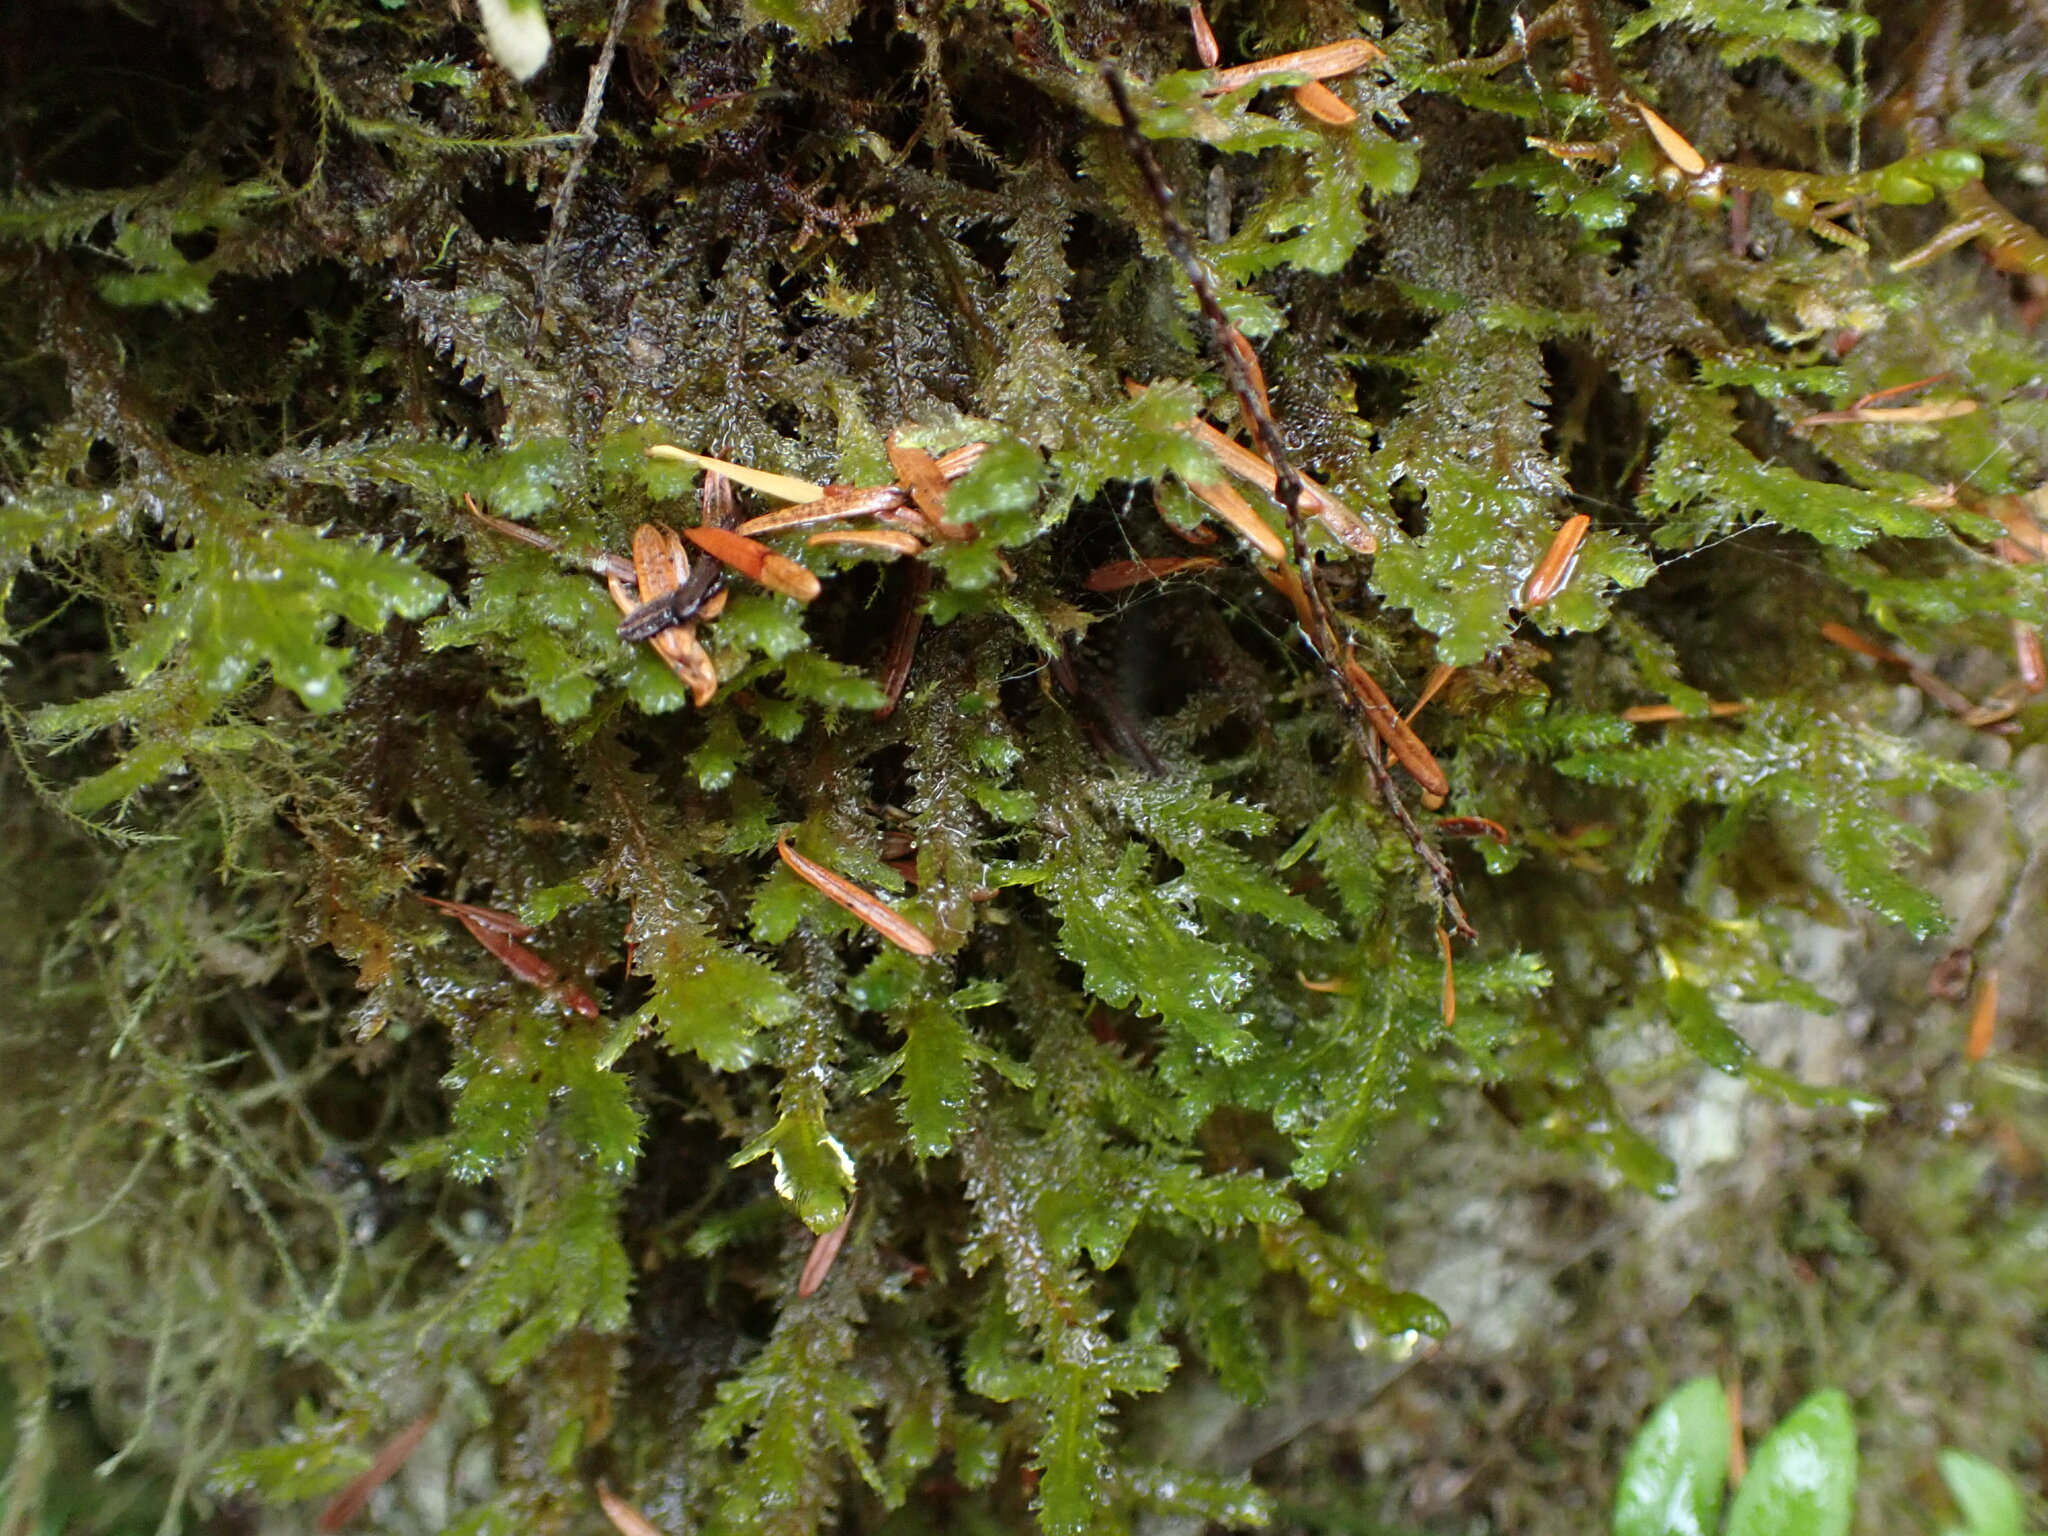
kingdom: Plantae
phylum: Bryophyta
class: Bryopsida
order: Hypnales
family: Neckeraceae
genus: Neckera
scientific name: Neckera douglasii
